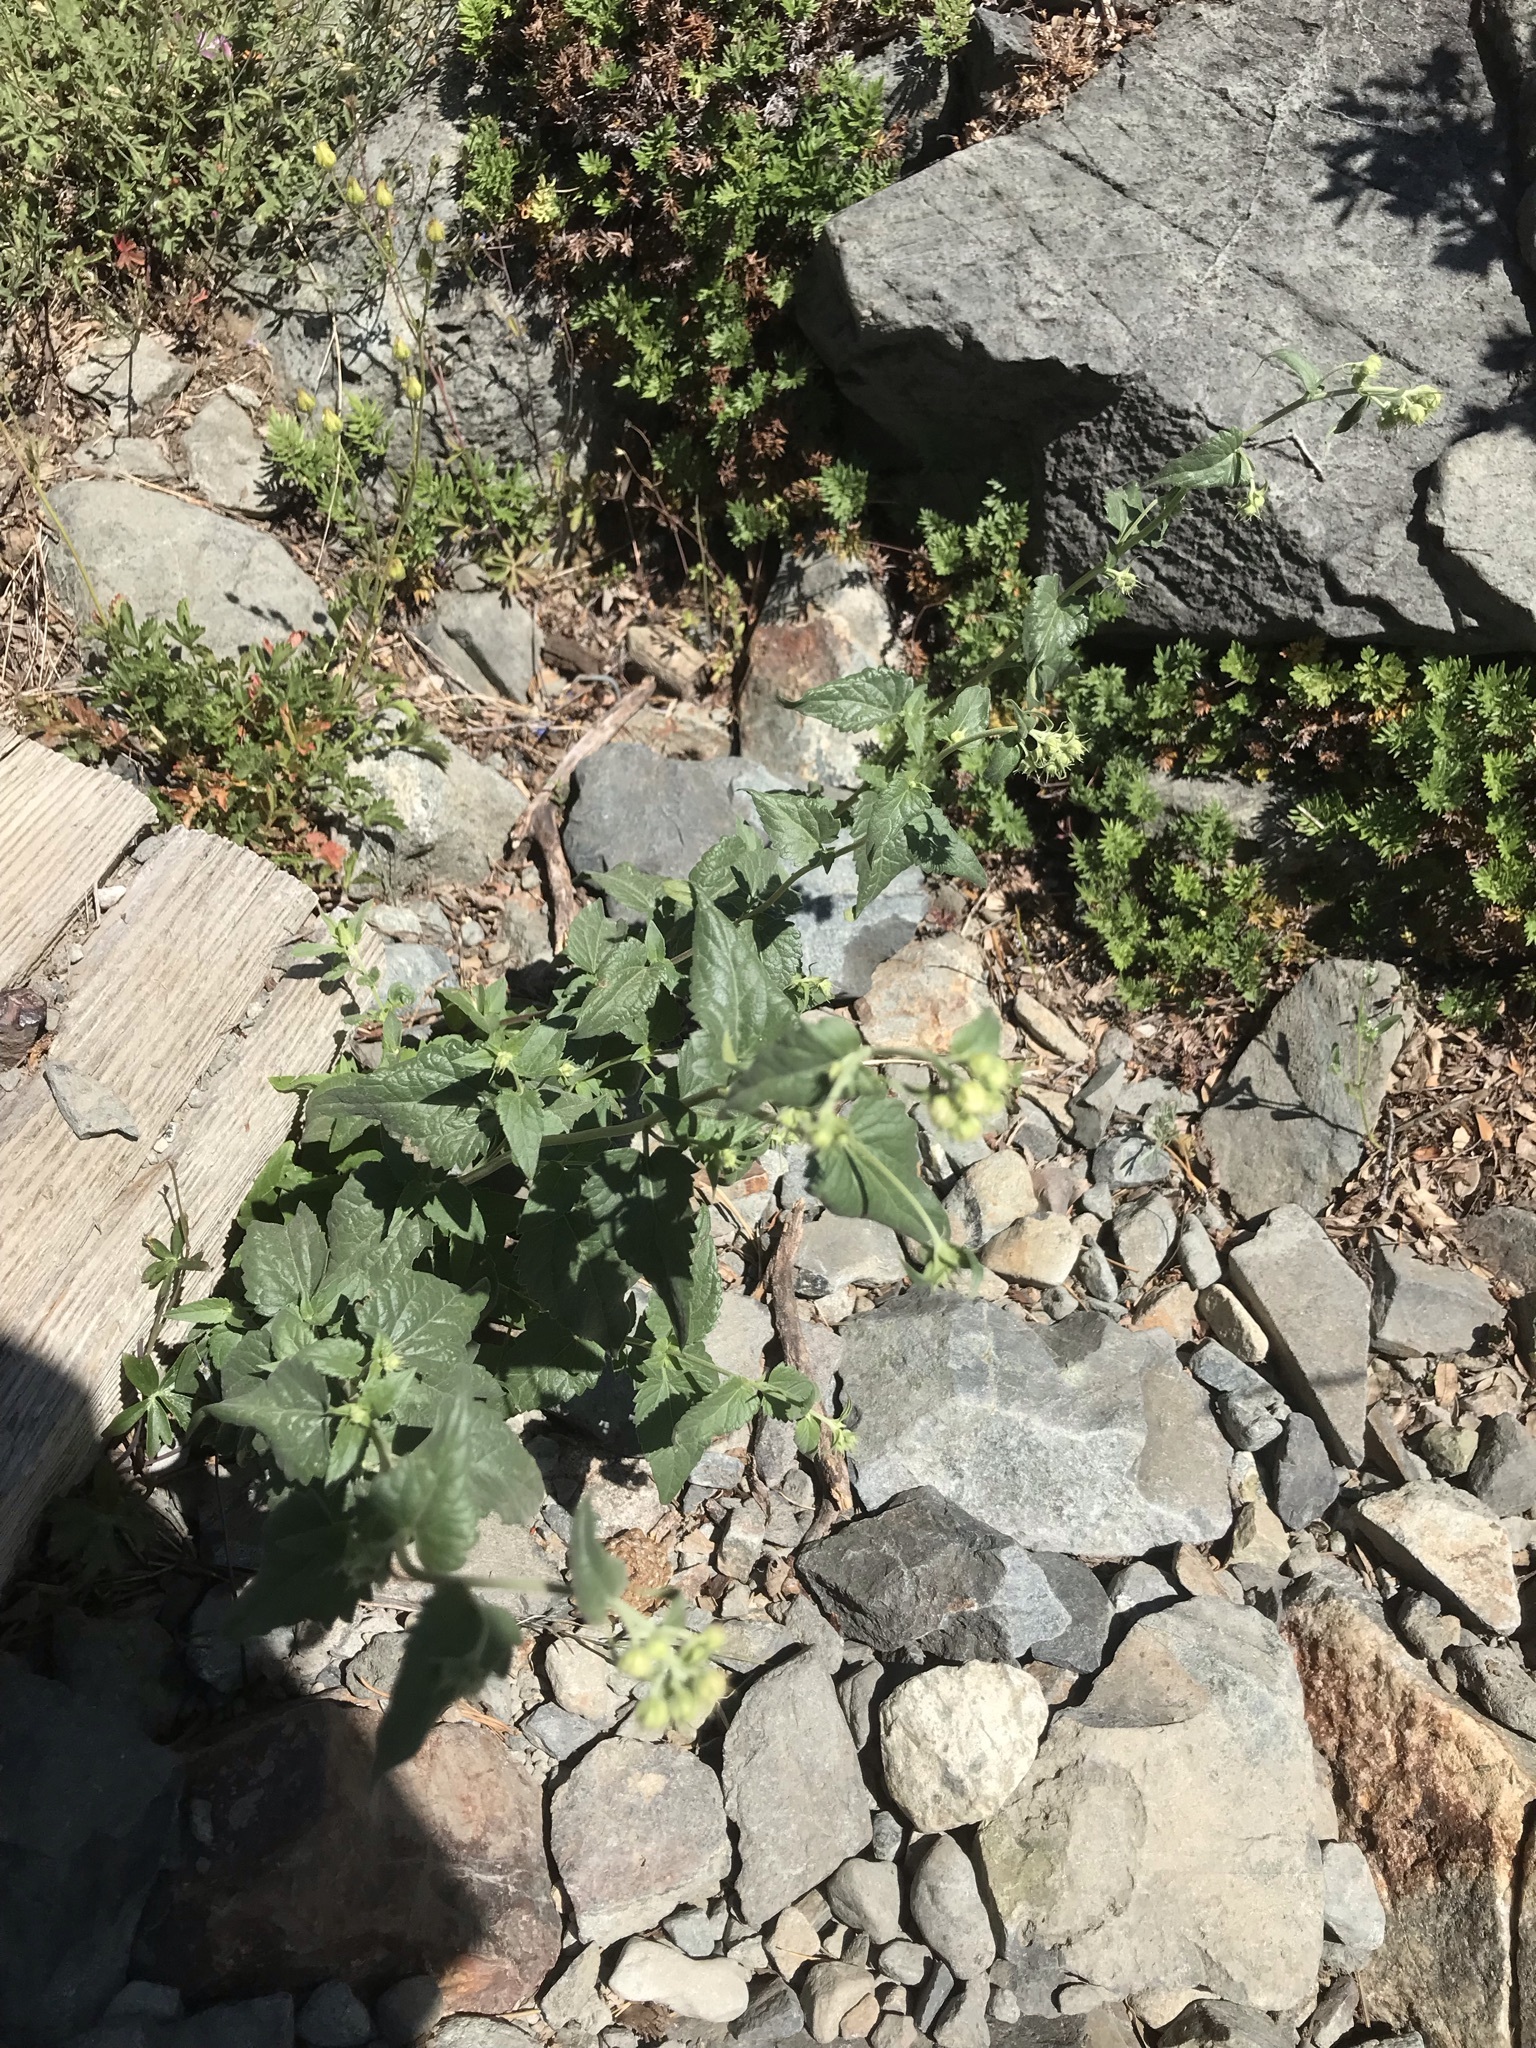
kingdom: Plantae
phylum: Tracheophyta
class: Magnoliopsida
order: Asterales
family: Asteraceae
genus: Brickellia
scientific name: Brickellia grandiflora
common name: Large-flowered brickellia
